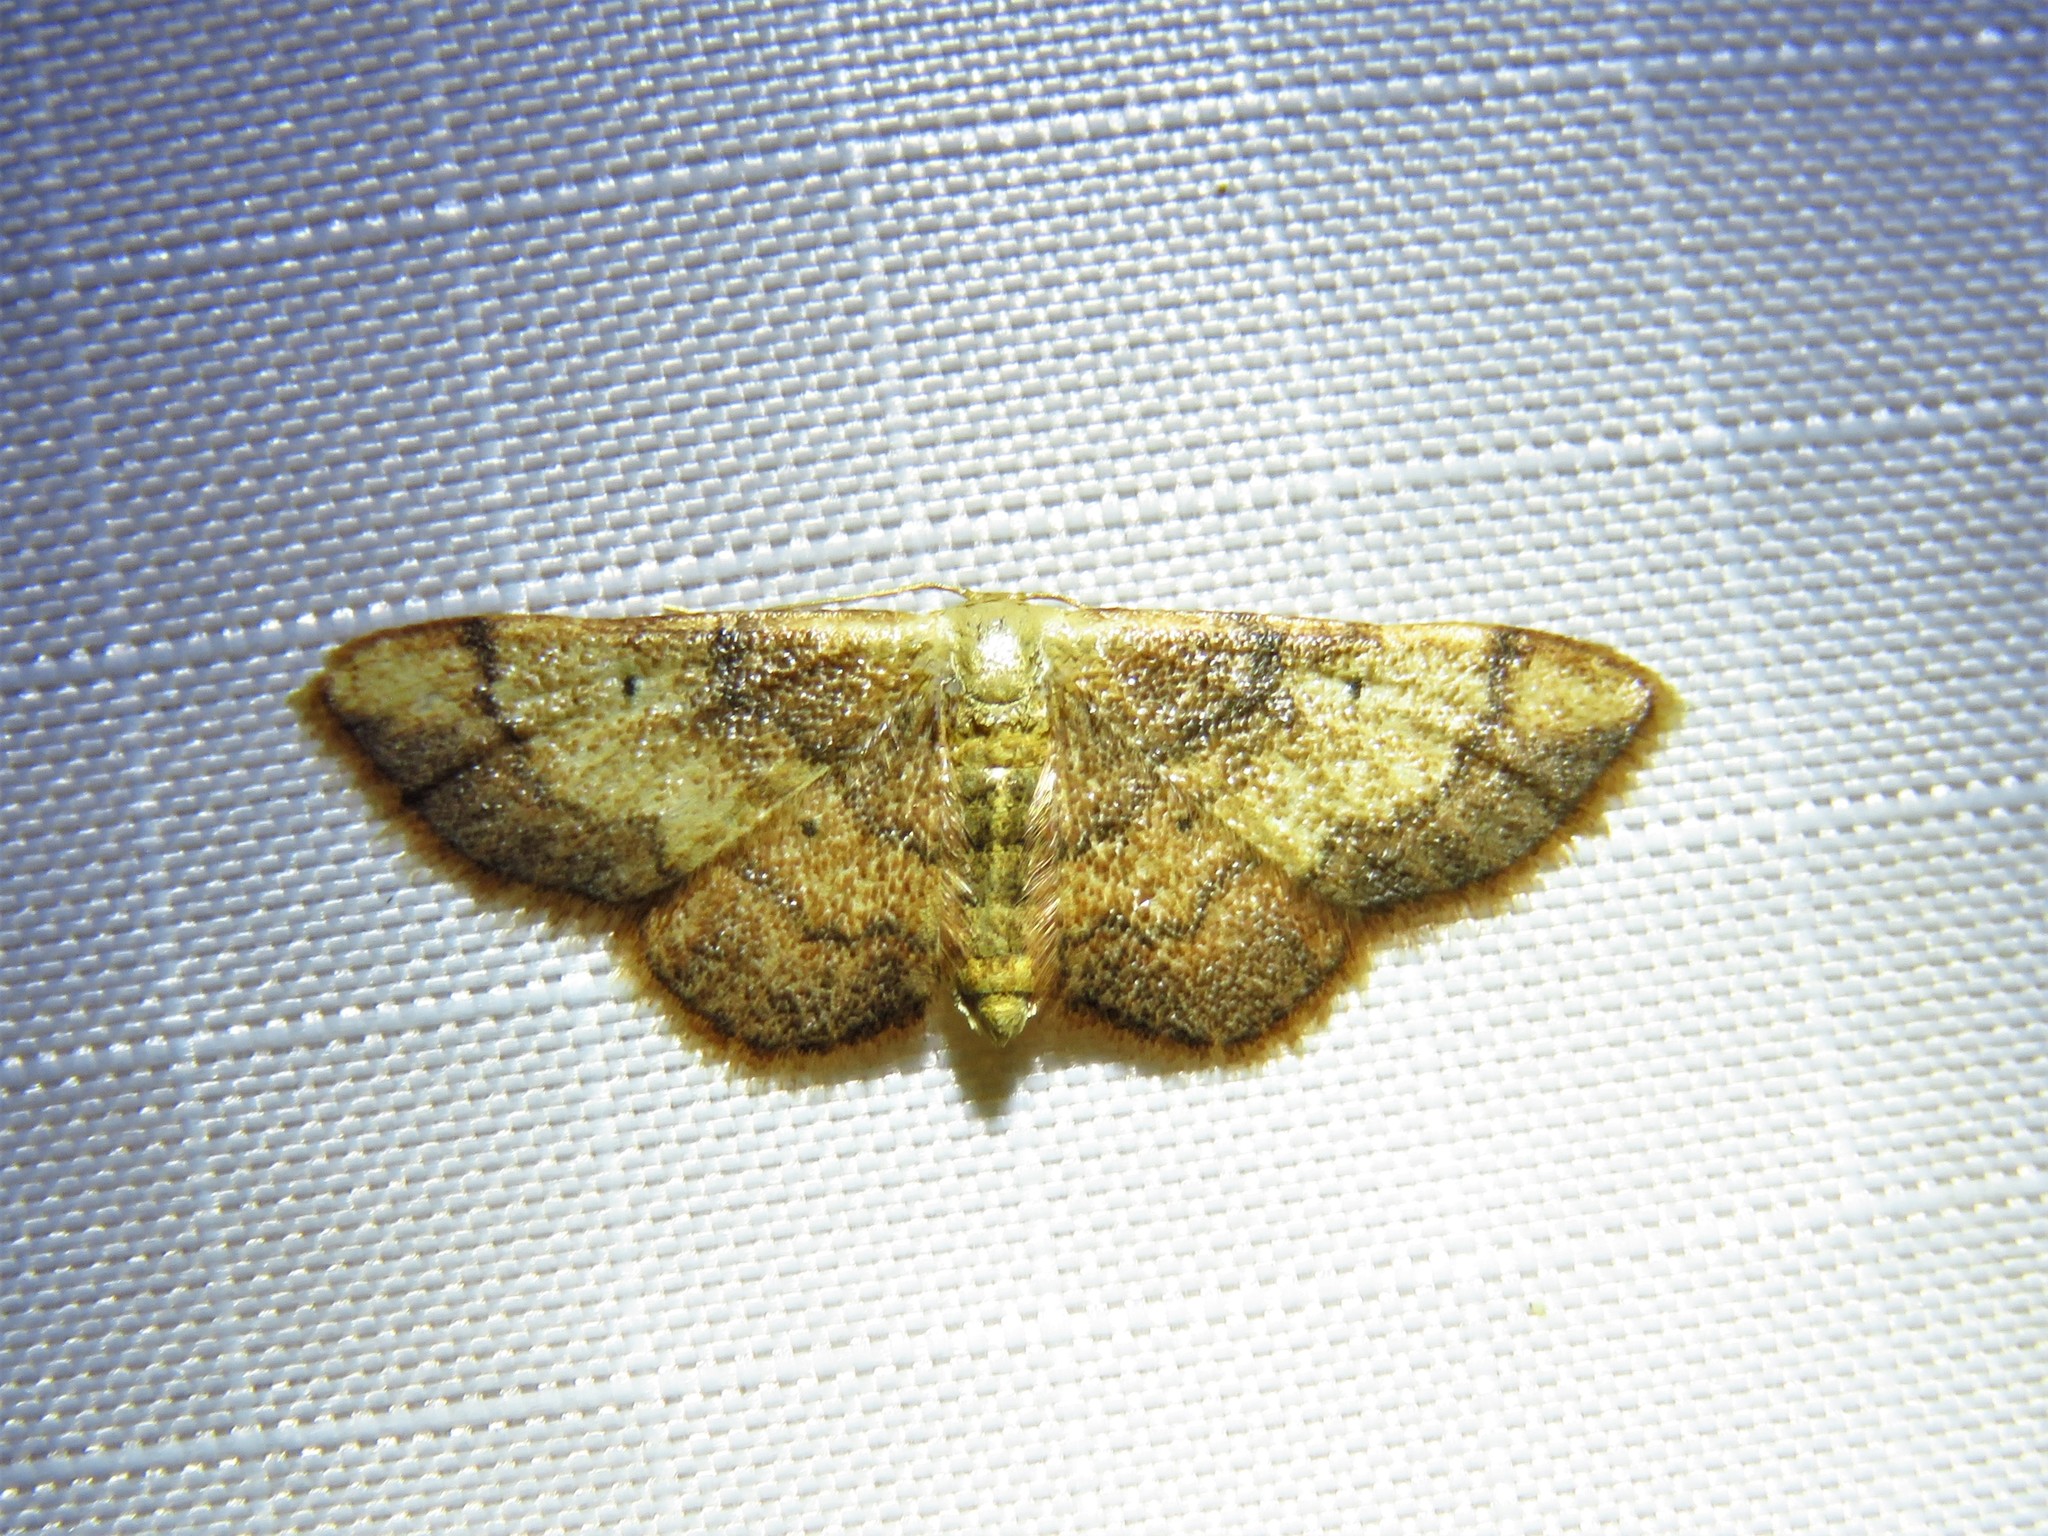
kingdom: Animalia
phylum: Arthropoda
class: Insecta
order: Lepidoptera
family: Geometridae
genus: Idaea
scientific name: Idaea demissaria
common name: Red-bordered wave
